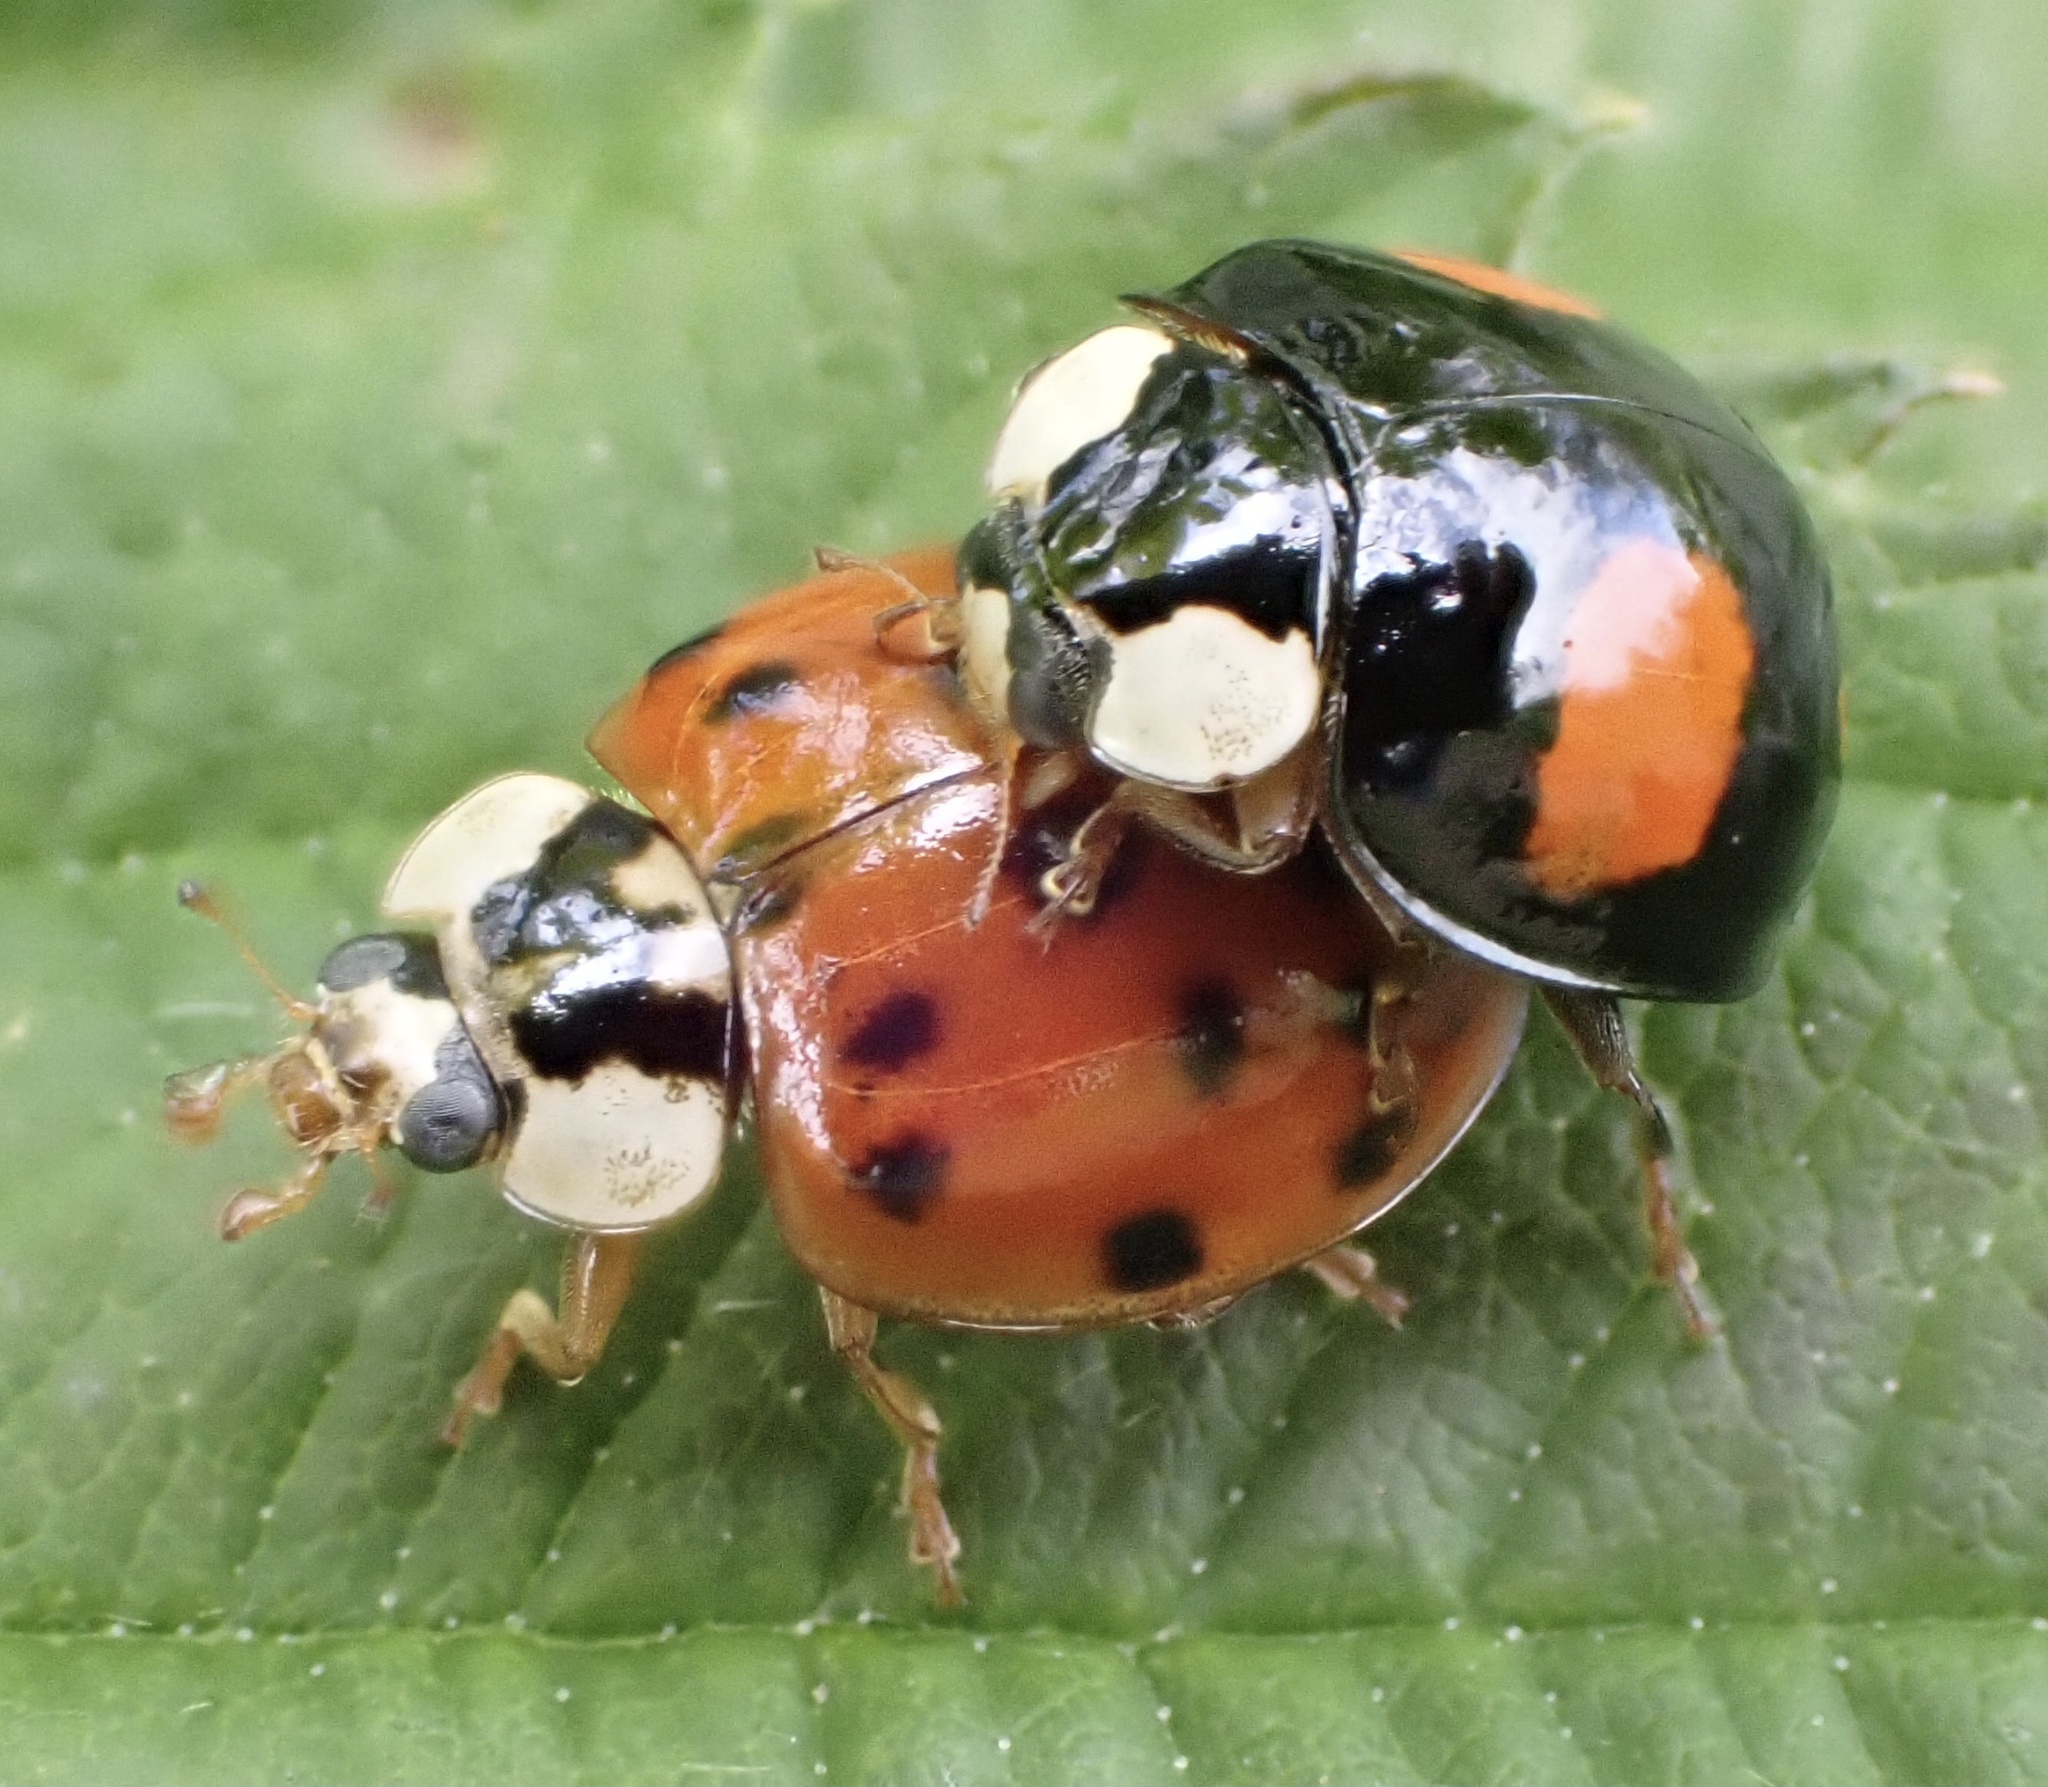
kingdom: Animalia
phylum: Arthropoda
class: Insecta
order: Coleoptera
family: Coccinellidae
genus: Harmonia
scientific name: Harmonia axyridis
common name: Harlequin ladybird
